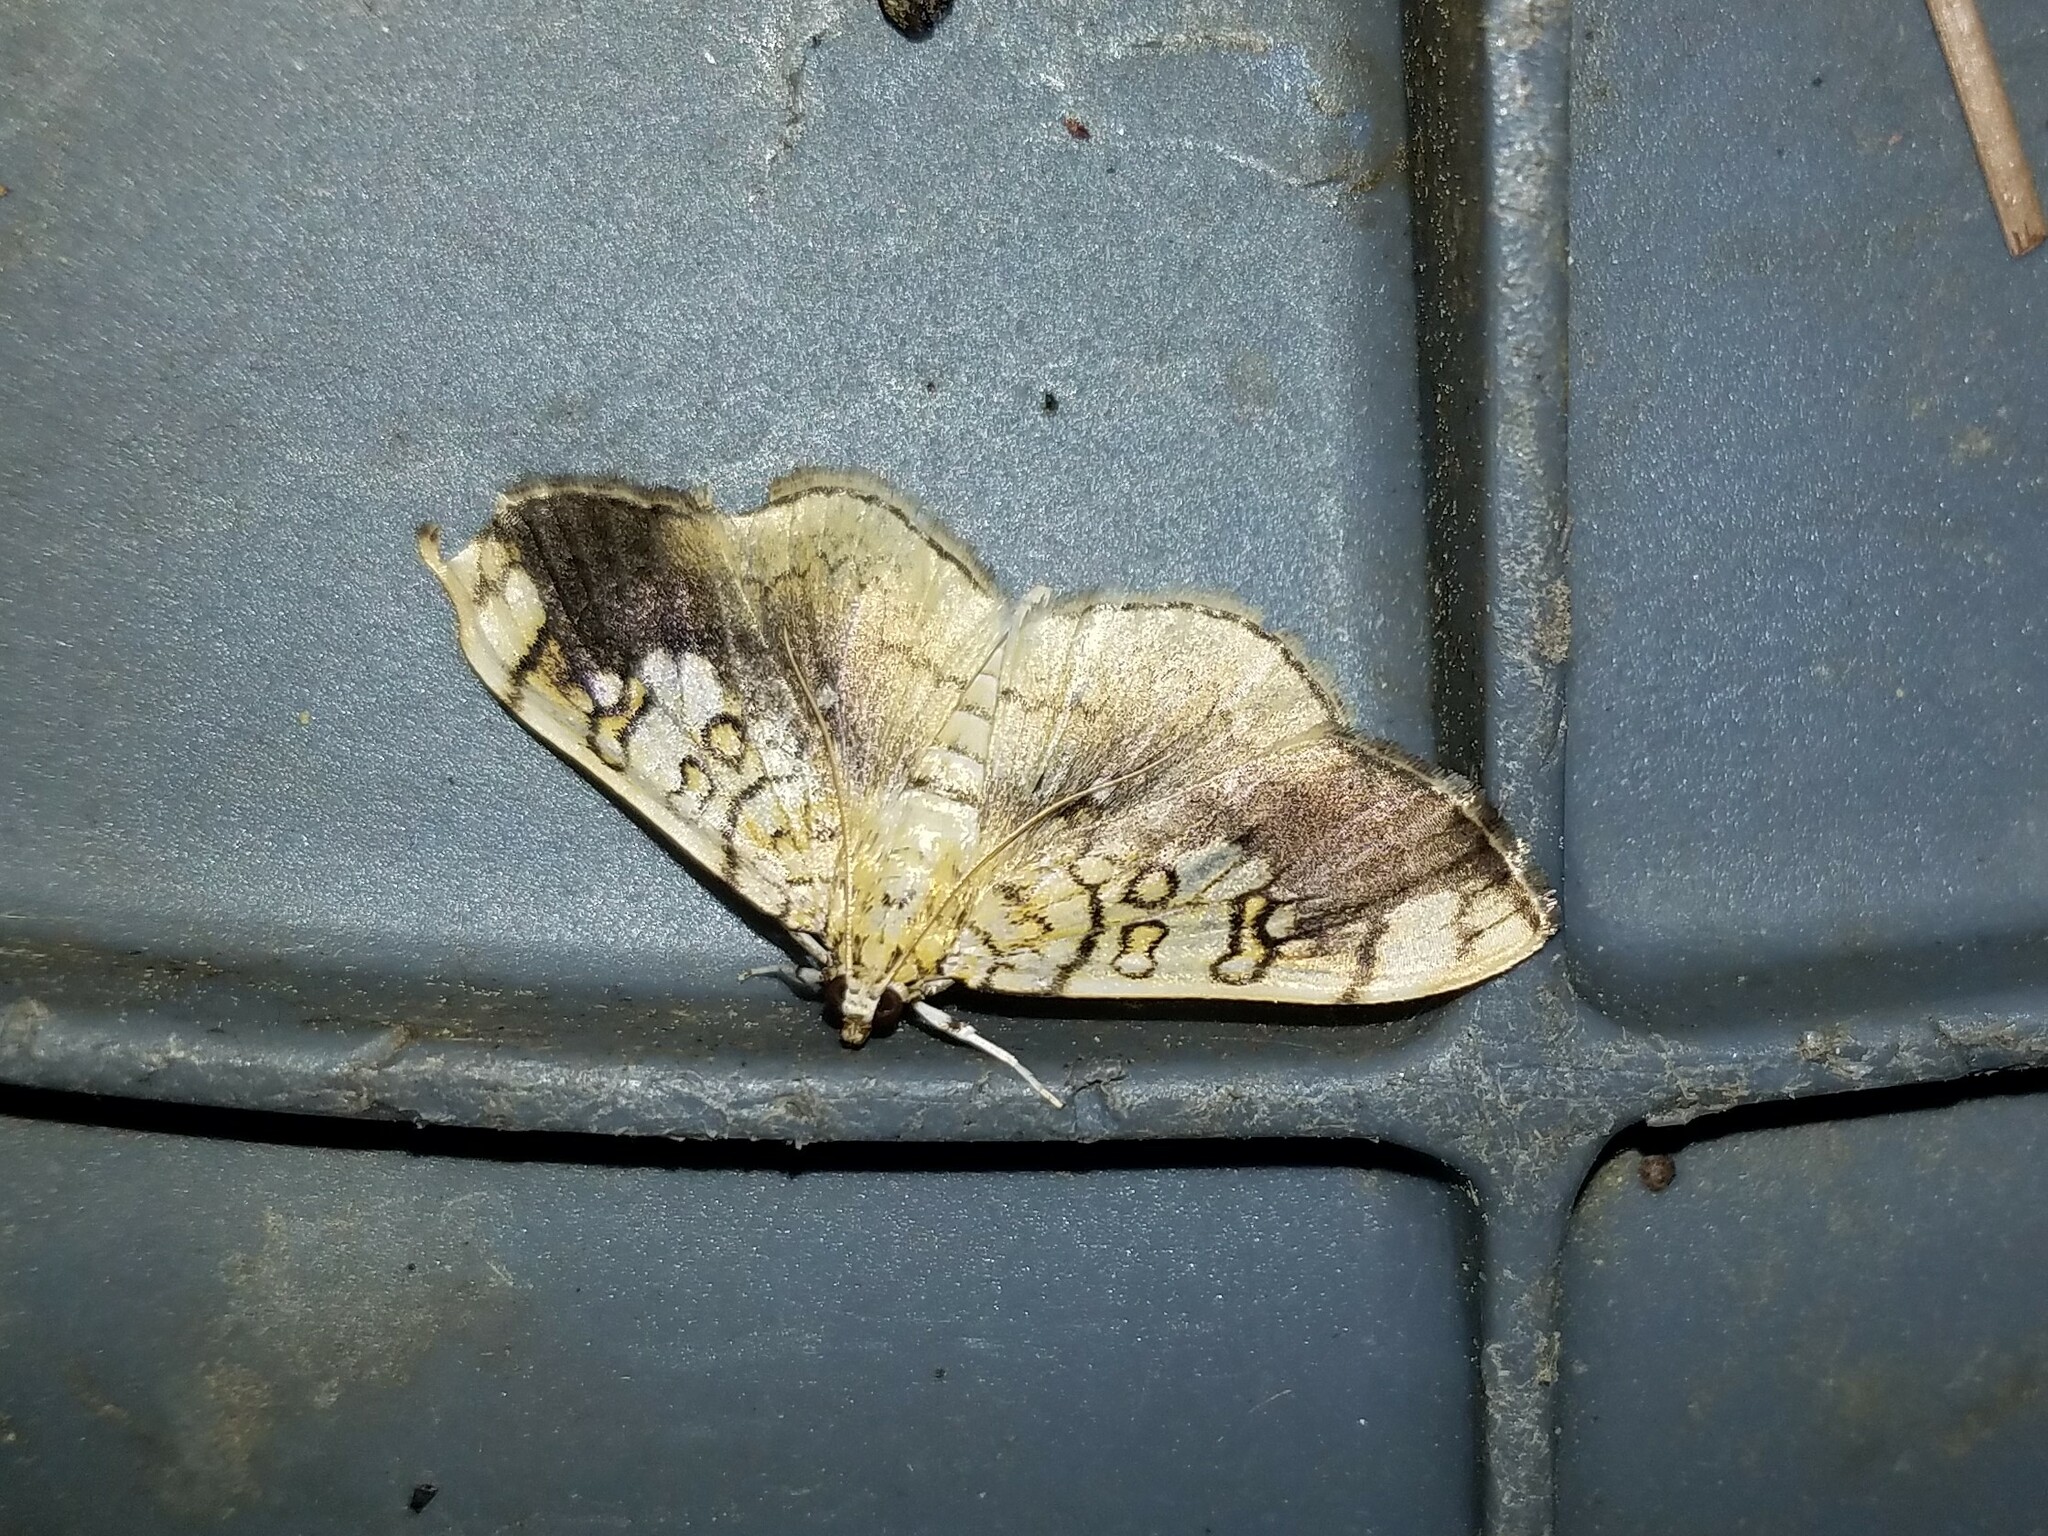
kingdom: Animalia
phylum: Arthropoda
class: Insecta
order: Lepidoptera
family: Crambidae
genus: Pantographa
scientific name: Pantographa limata
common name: Basswood leafroller moth
